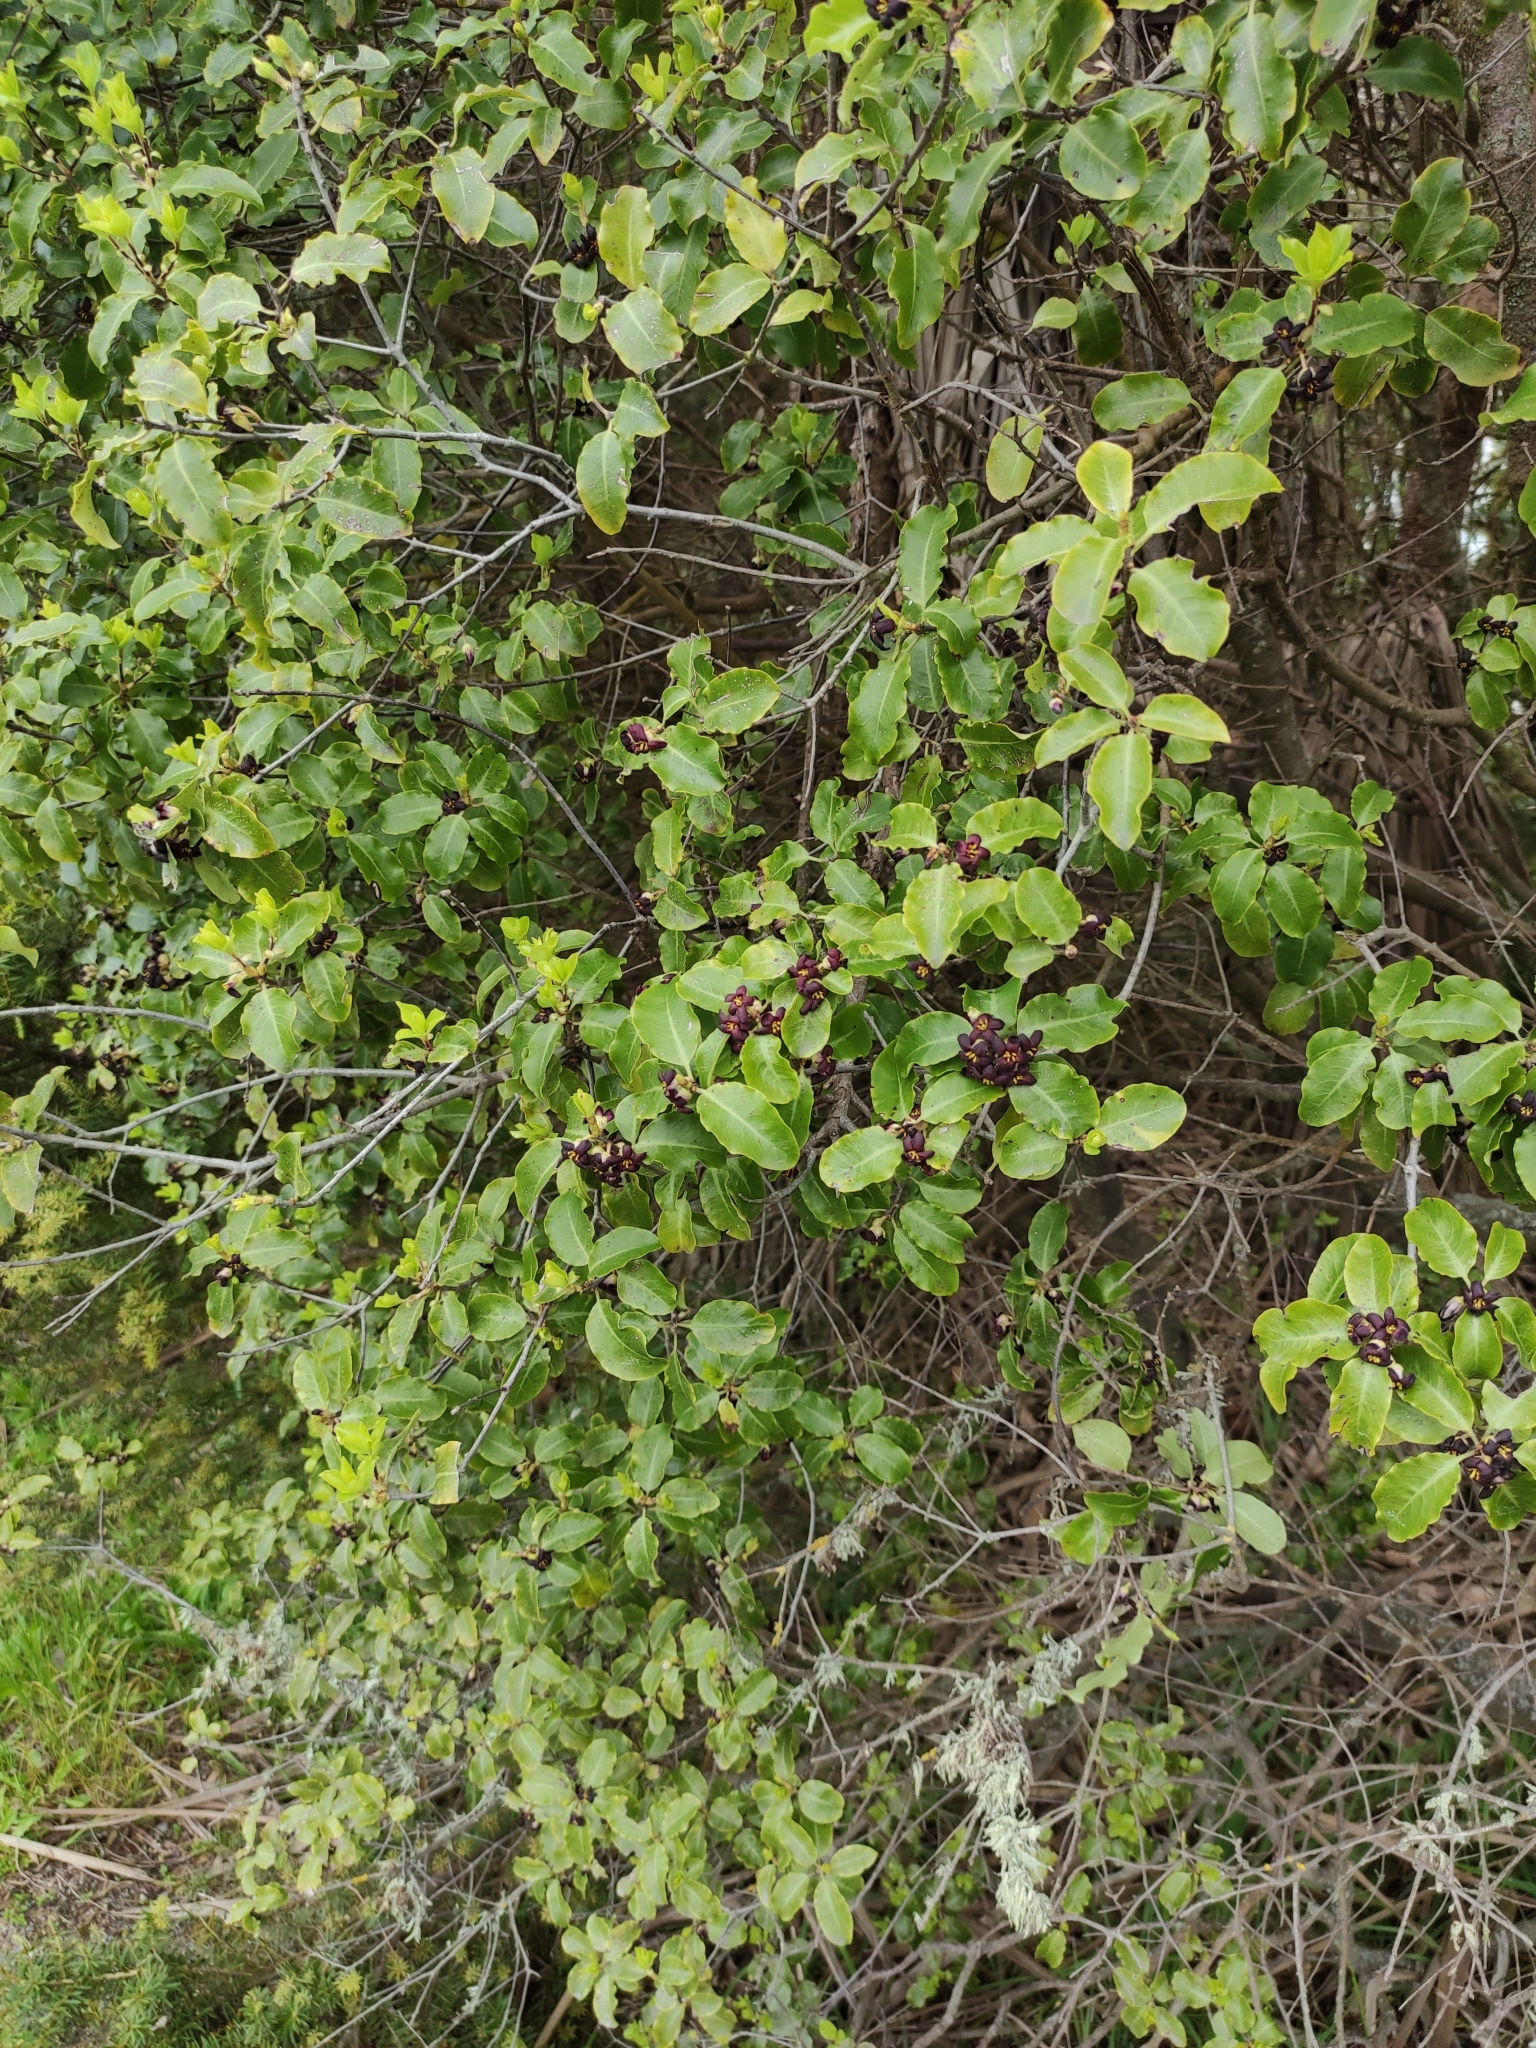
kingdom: Plantae
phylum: Tracheophyta
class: Magnoliopsida
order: Apiales
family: Pittosporaceae
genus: Pittosporum
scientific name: Pittosporum tenuifolium
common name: Kohuhu
